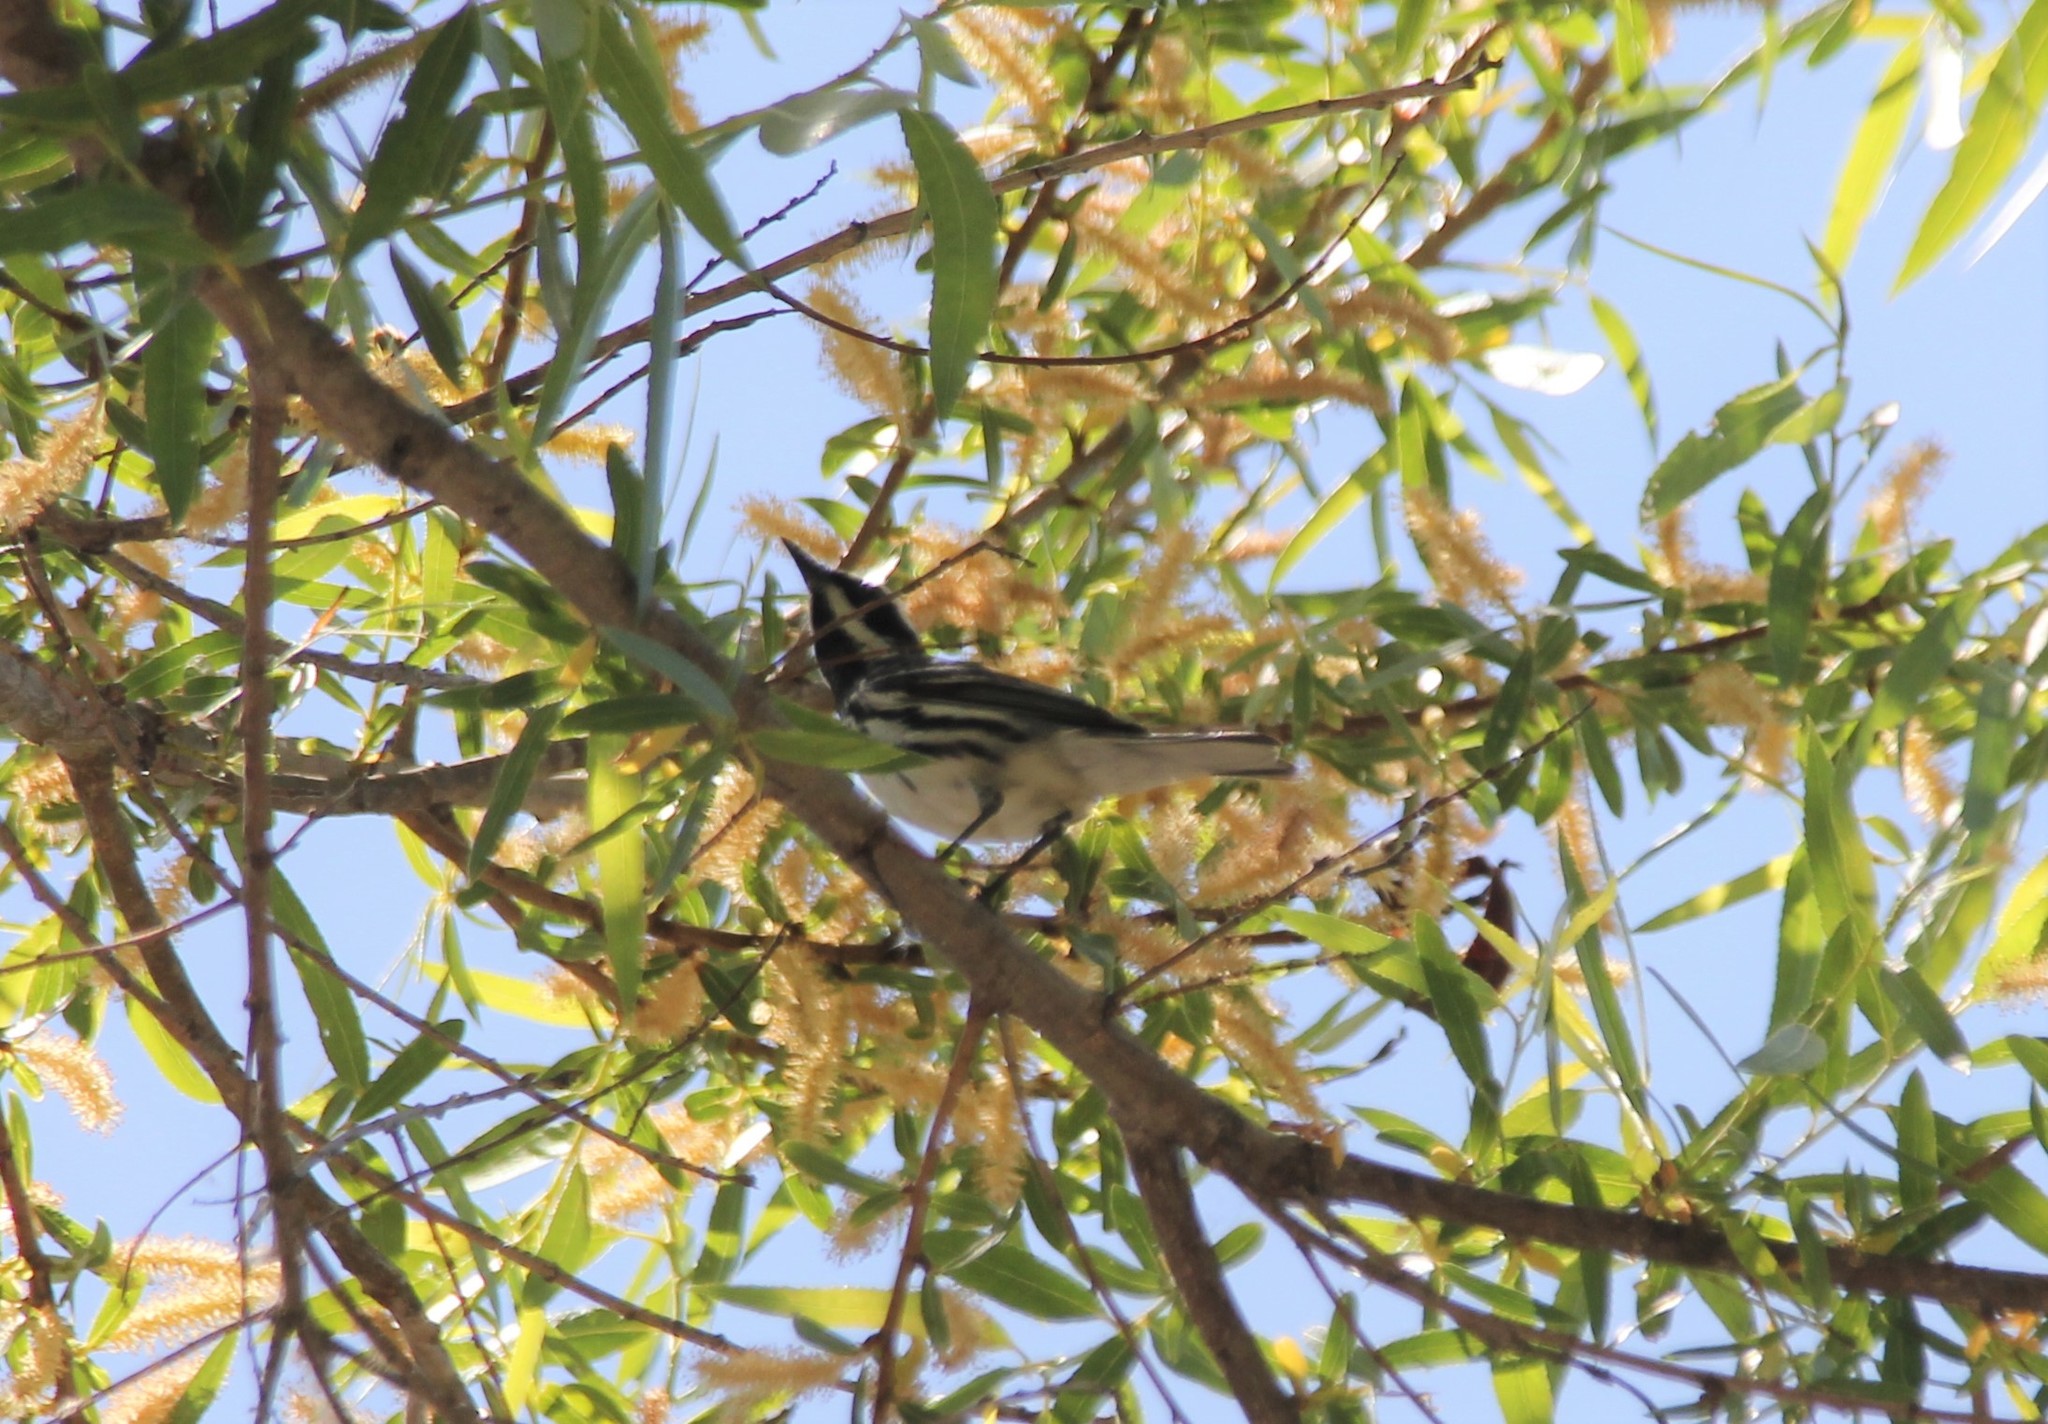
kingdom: Animalia
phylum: Chordata
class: Aves
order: Passeriformes
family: Parulidae
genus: Setophaga
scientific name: Setophaga nigrescens
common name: Black-throated gray warbler
